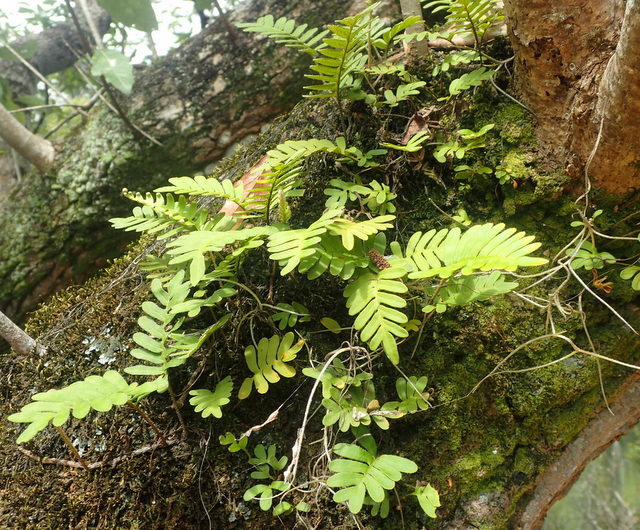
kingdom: Plantae
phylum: Tracheophyta
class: Polypodiopsida
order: Polypodiales
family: Polypodiaceae
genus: Pleopeltis
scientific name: Pleopeltis michauxiana
